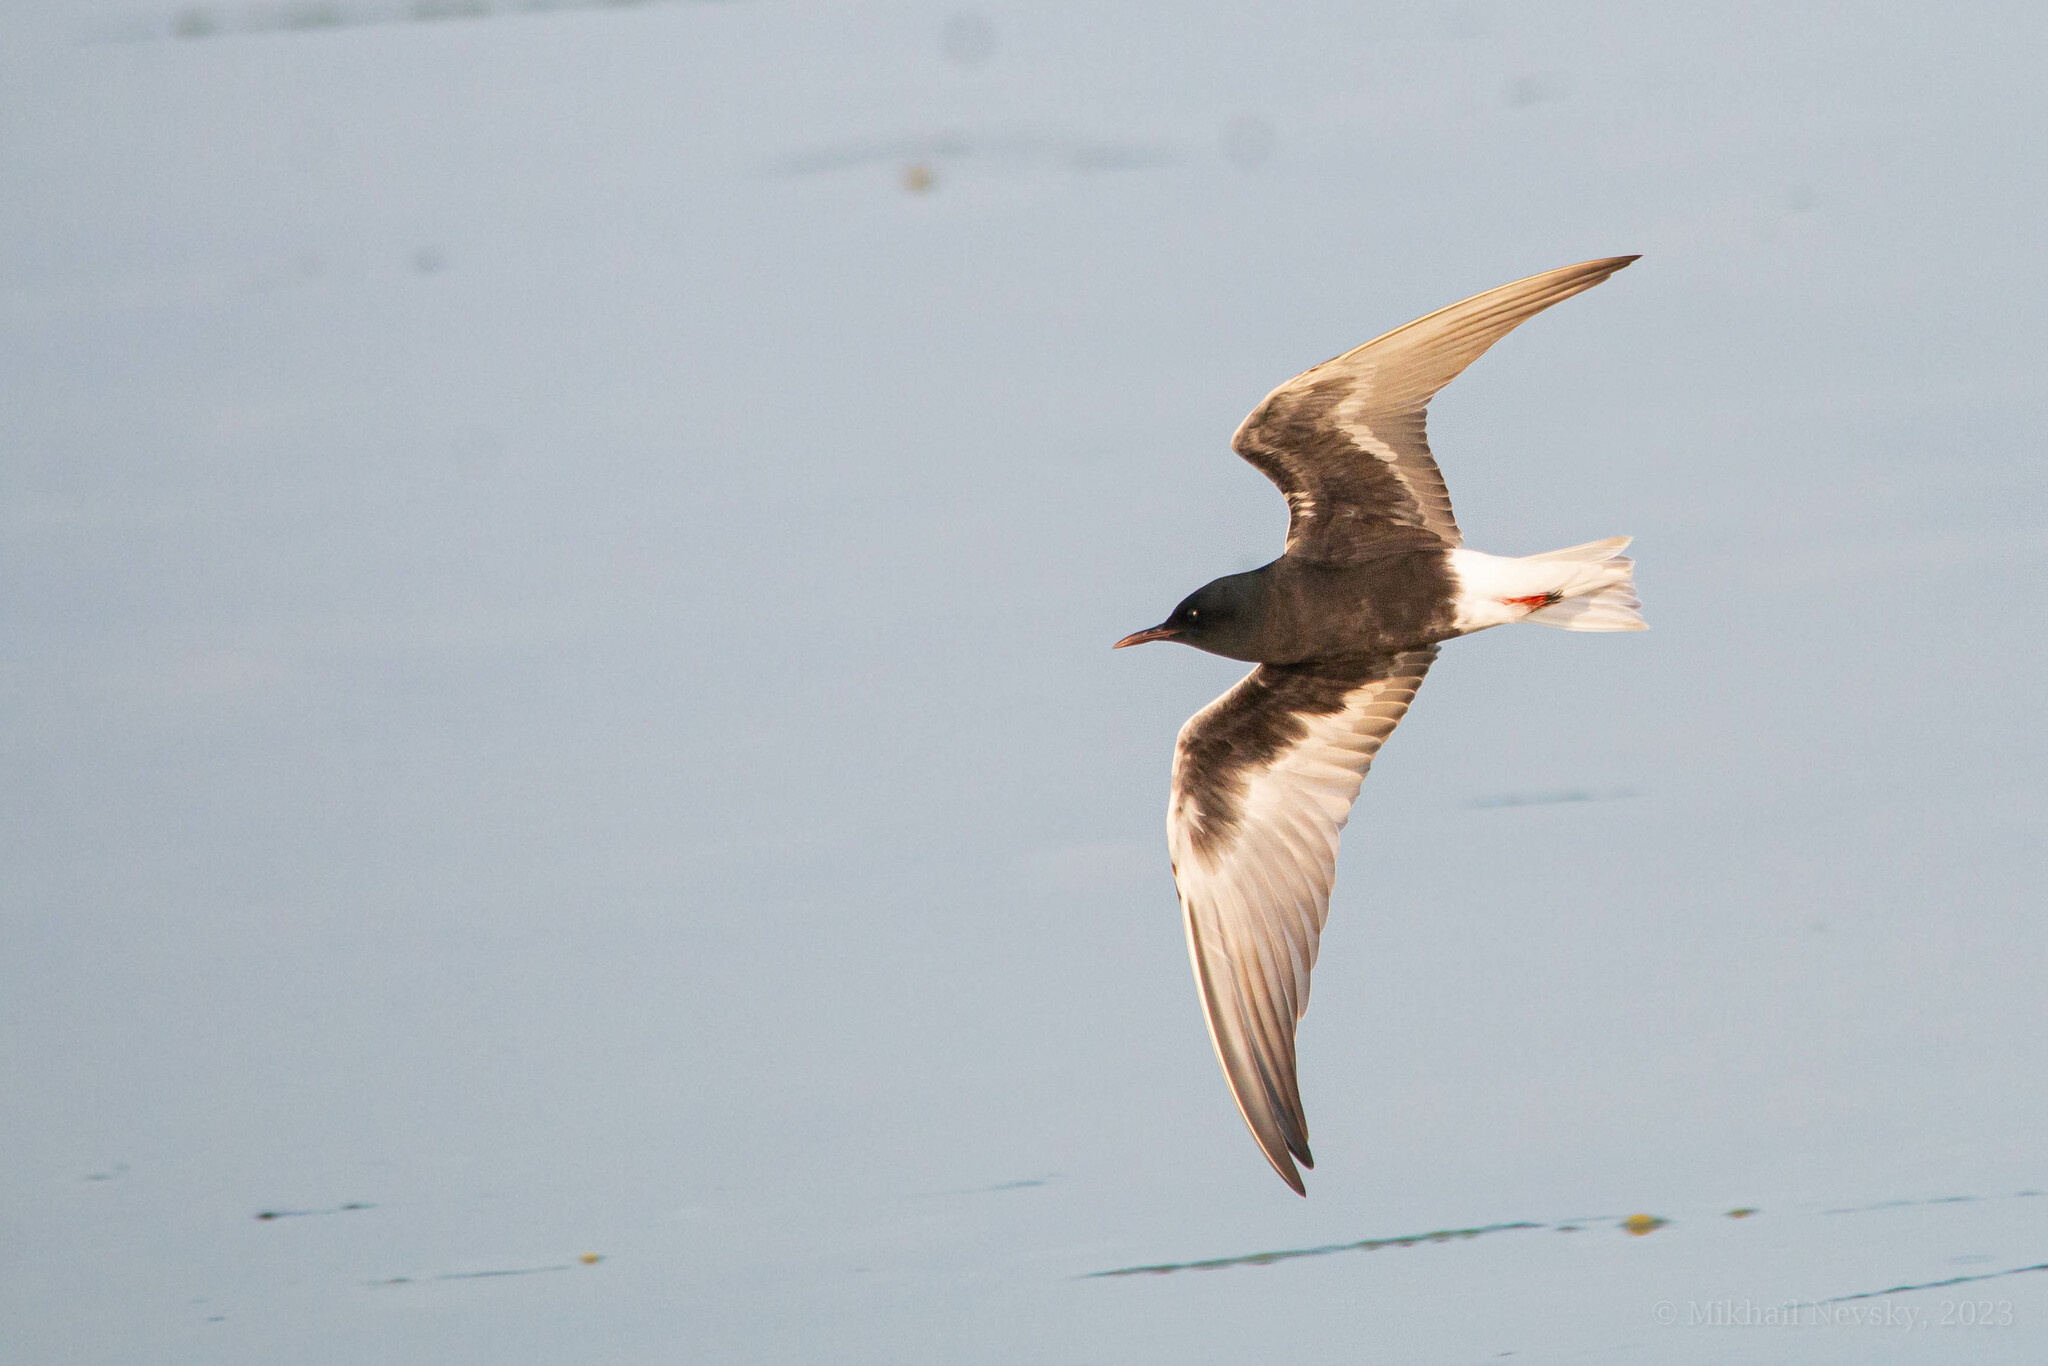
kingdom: Animalia
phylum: Chordata
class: Aves
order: Charadriiformes
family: Laridae
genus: Chlidonias
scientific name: Chlidonias leucopterus
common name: White-winged tern
